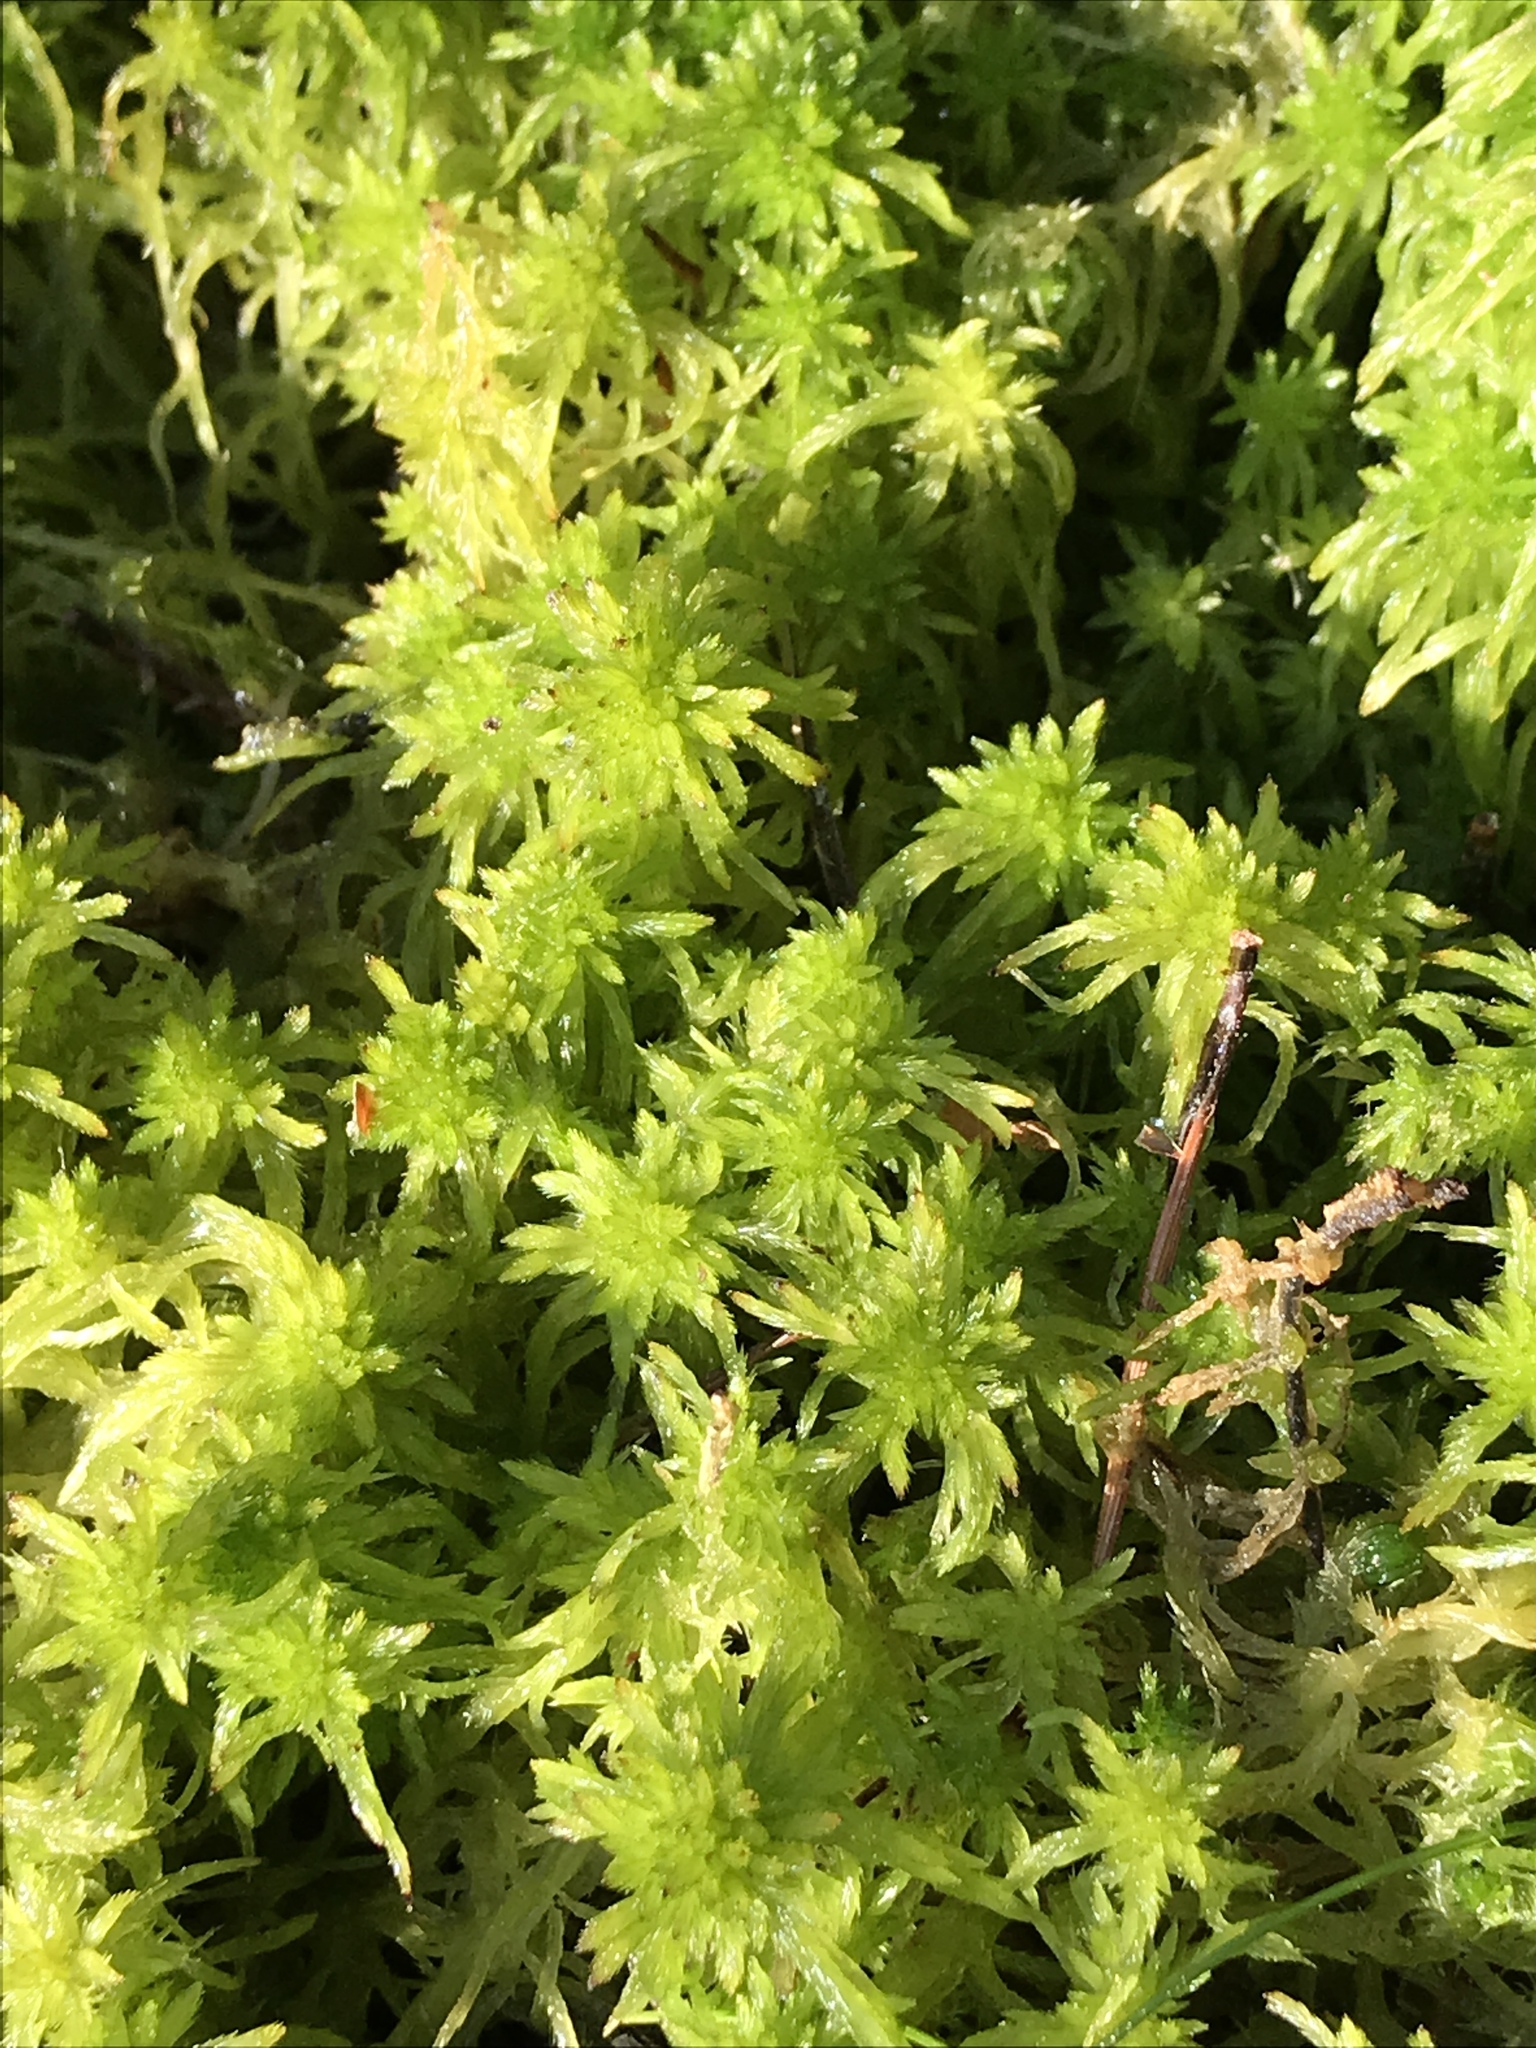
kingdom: Plantae
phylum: Bryophyta
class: Sphagnopsida
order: Sphagnales
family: Sphagnaceae
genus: Sphagnum
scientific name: Sphagnum fallax
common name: Flat-top peat moss
